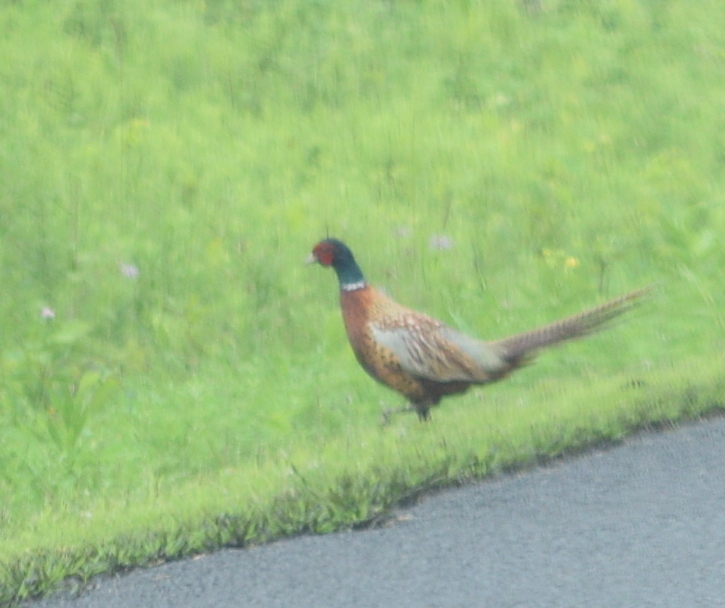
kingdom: Animalia
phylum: Chordata
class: Aves
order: Galliformes
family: Phasianidae
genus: Phasianus
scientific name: Phasianus colchicus
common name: Common pheasant
